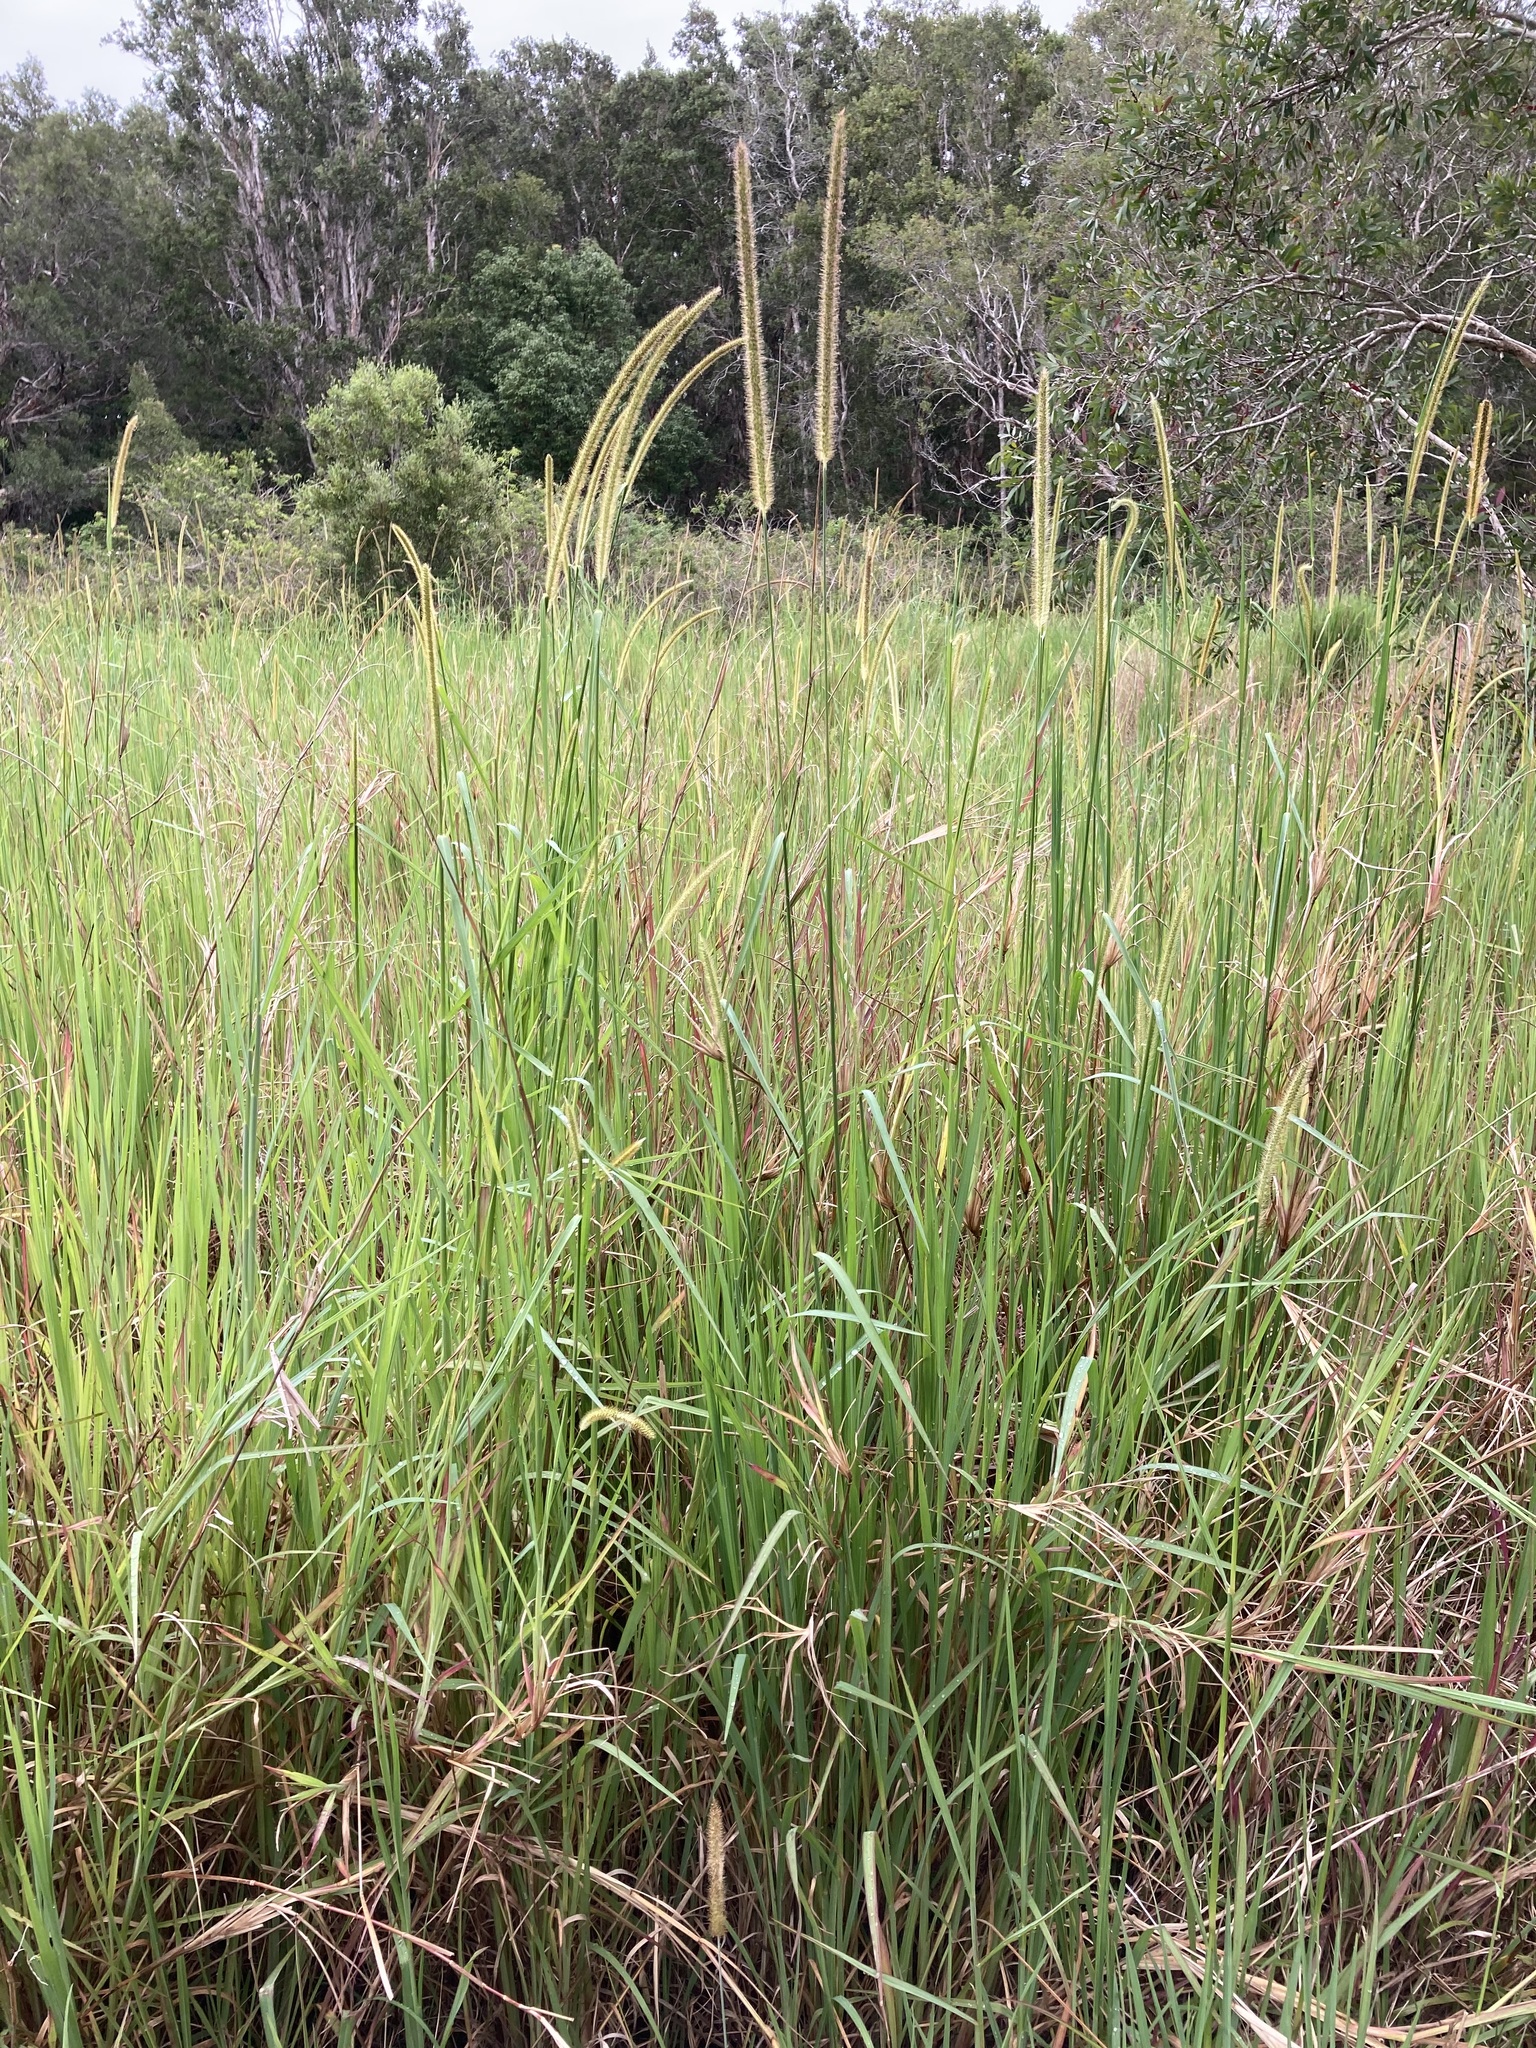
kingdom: Plantae
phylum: Tracheophyta
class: Liliopsida
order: Poales
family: Poaceae
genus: Setaria
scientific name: Setaria sphacelata
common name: African bristlegrass
